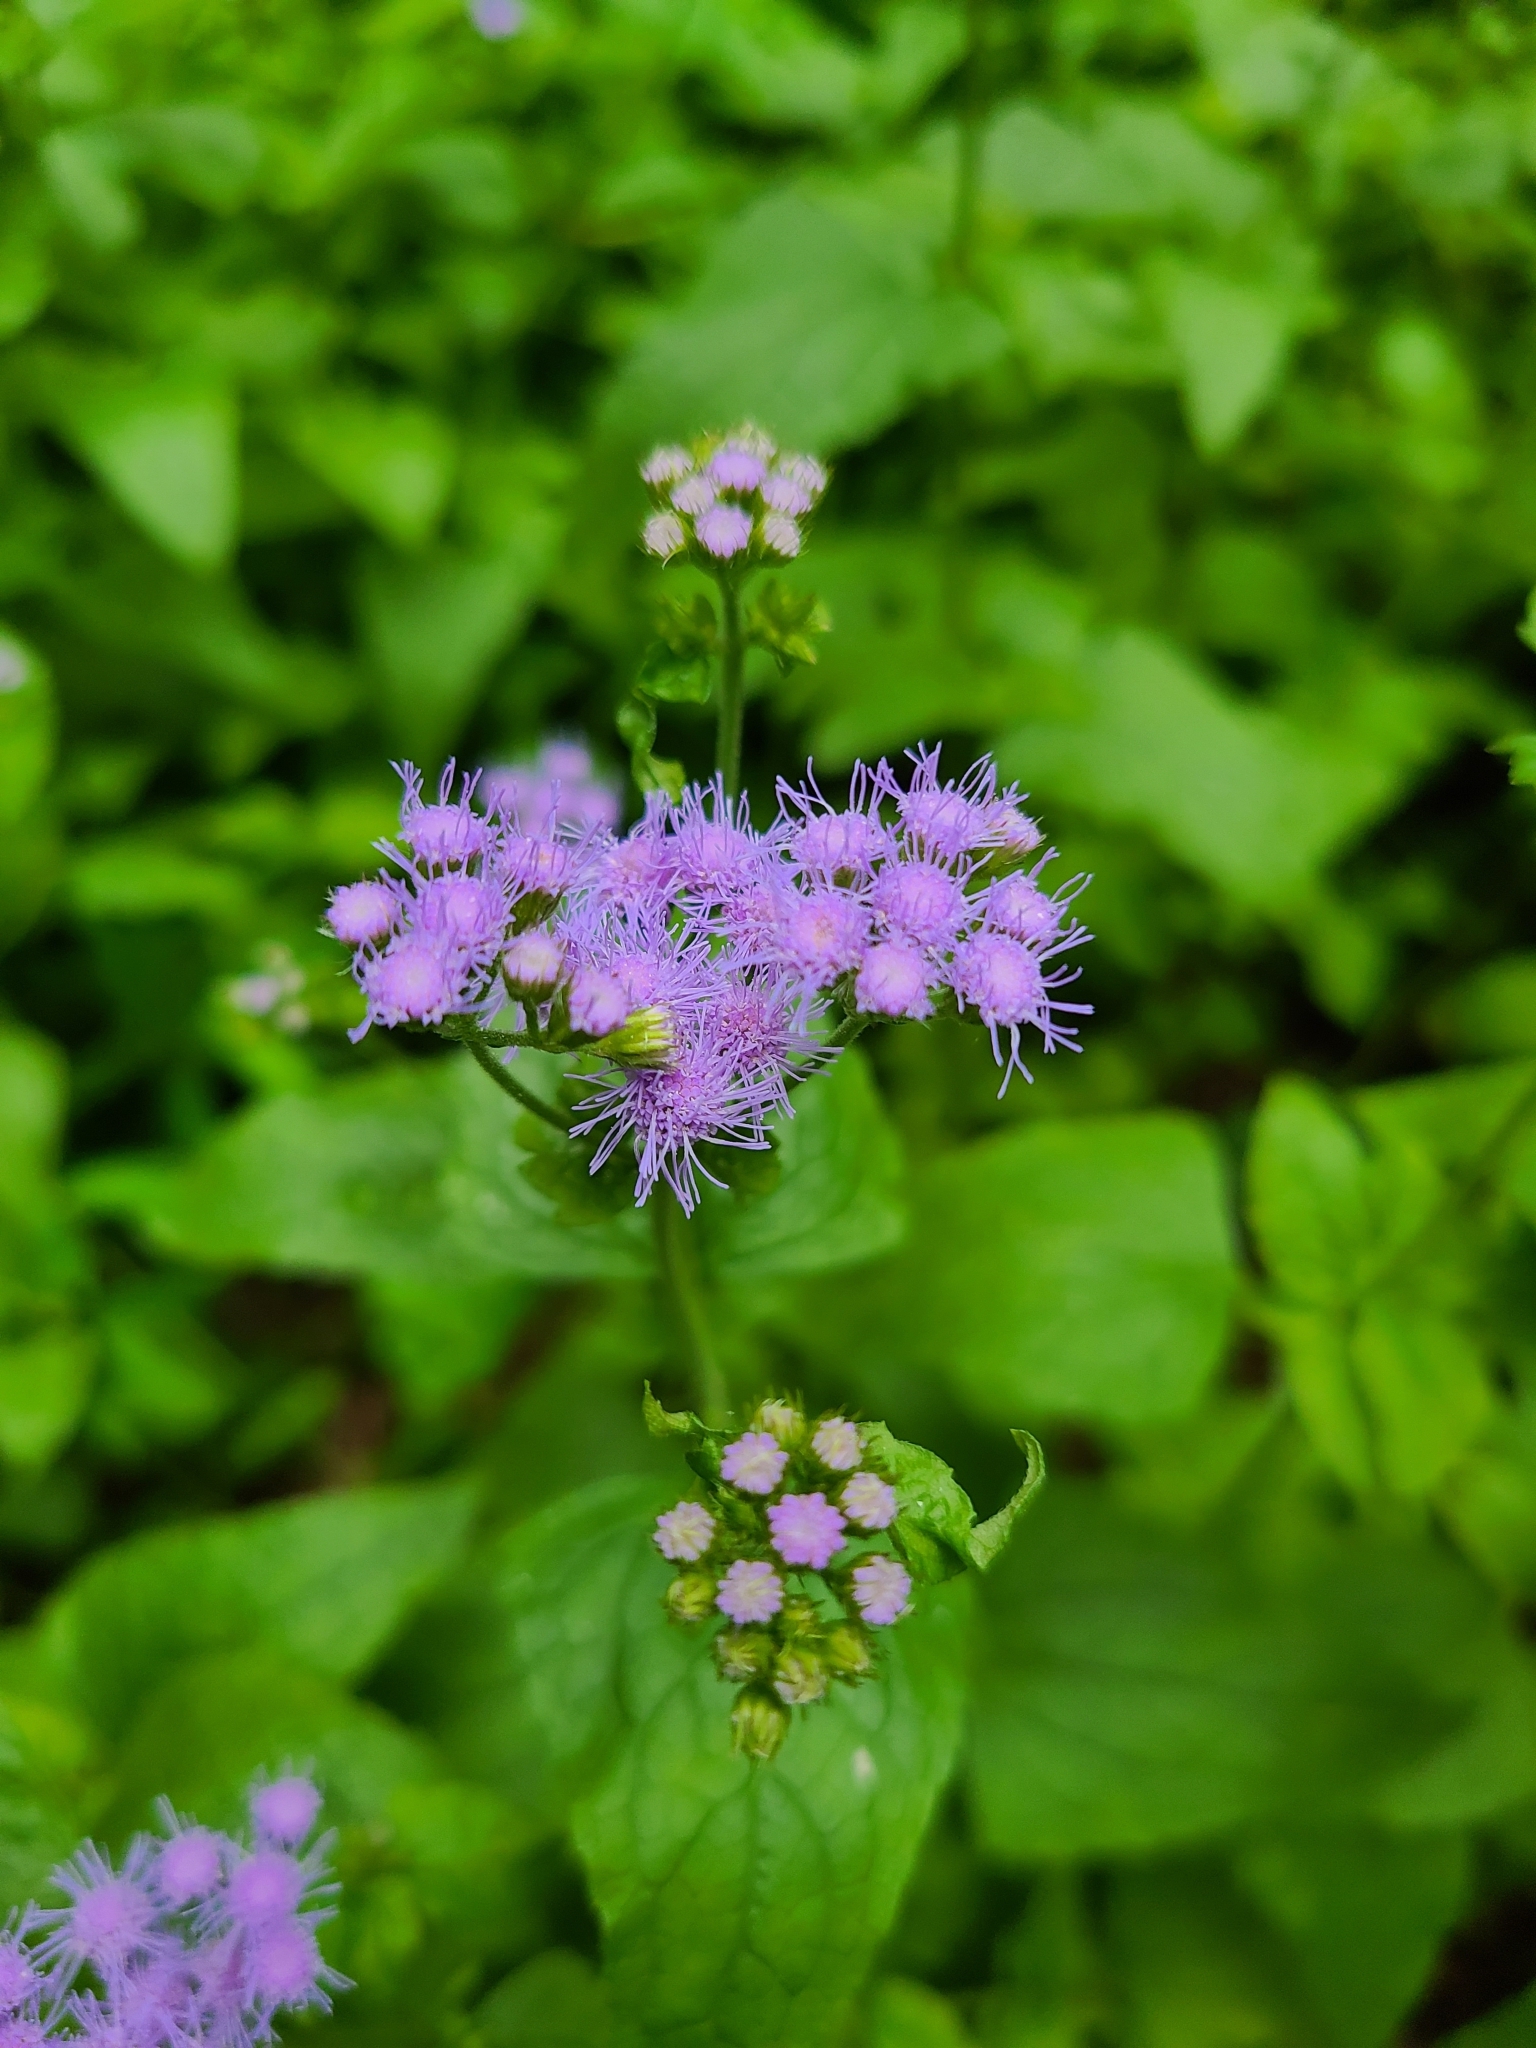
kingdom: Plantae
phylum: Tracheophyta
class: Magnoliopsida
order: Asterales
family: Asteraceae
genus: Conoclinium
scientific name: Conoclinium coelestinum
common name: Blue mistflower
